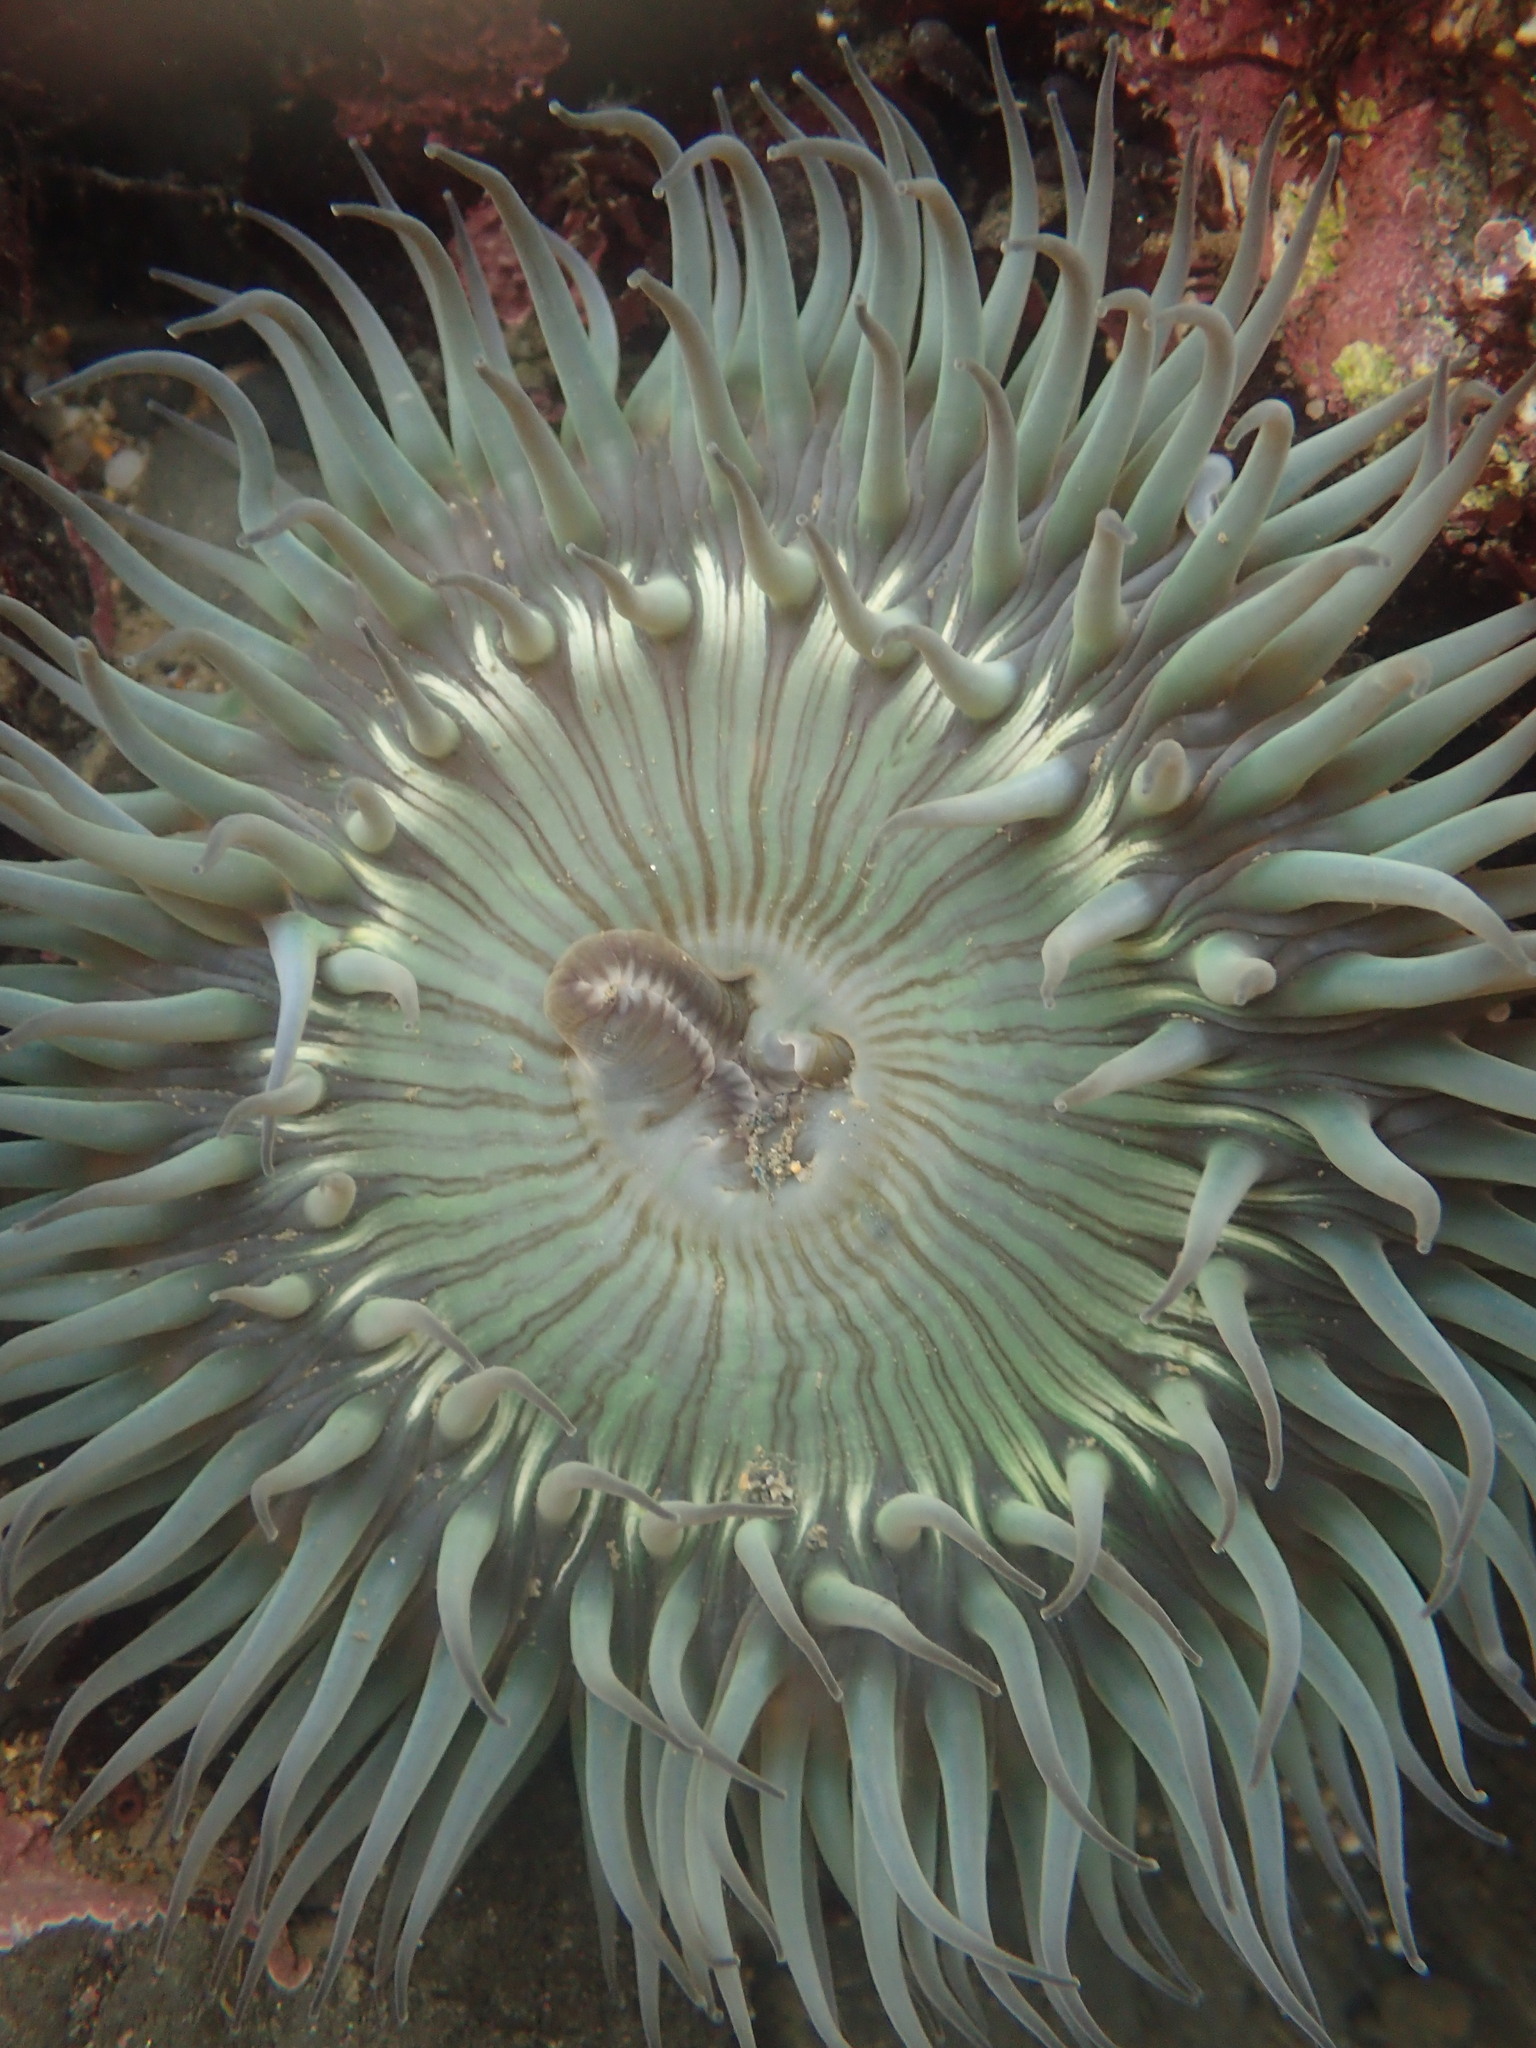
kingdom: Animalia
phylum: Cnidaria
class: Anthozoa
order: Actiniaria
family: Actiniidae
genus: Anthopleura
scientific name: Anthopleura sola
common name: Sun anemone
